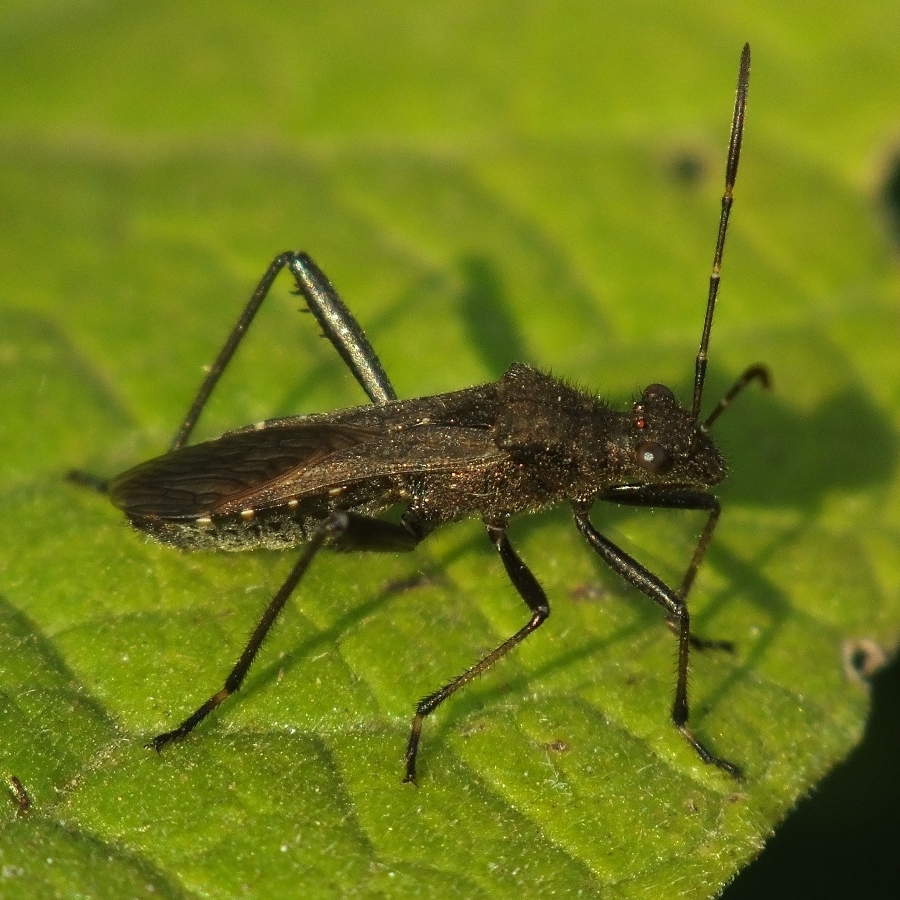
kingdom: Animalia
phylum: Arthropoda
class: Insecta
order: Hemiptera
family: Alydidae
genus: Alydus
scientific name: Alydus calcaratus
